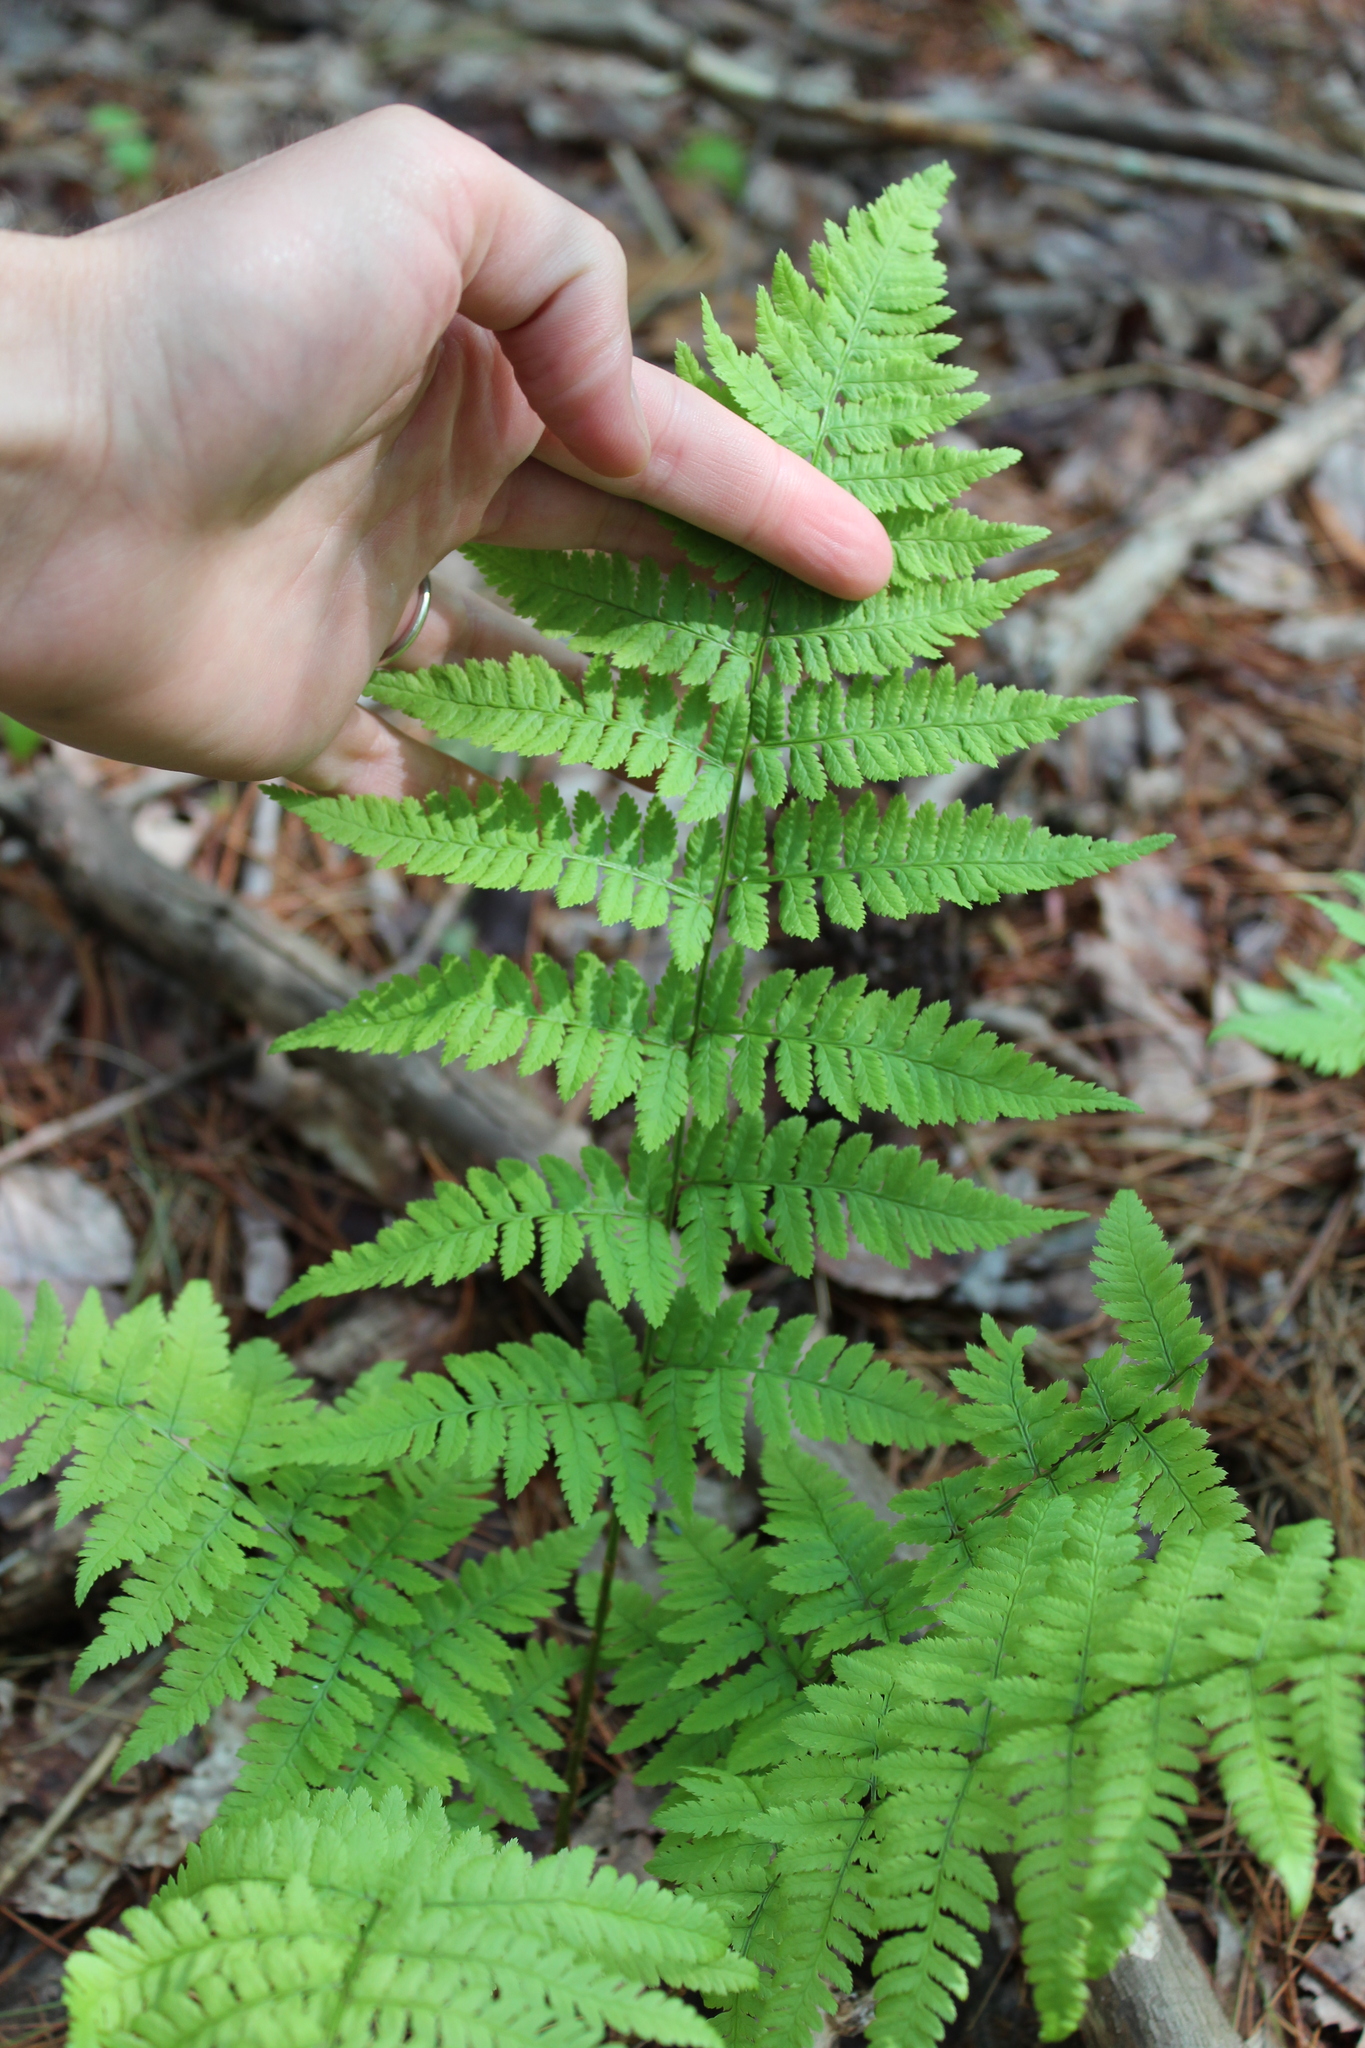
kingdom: Plantae
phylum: Tracheophyta
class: Polypodiopsida
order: Polypodiales
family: Dryopteridaceae
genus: Dryopteris
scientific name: Dryopteris carthusiana
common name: Narrow buckler-fern
